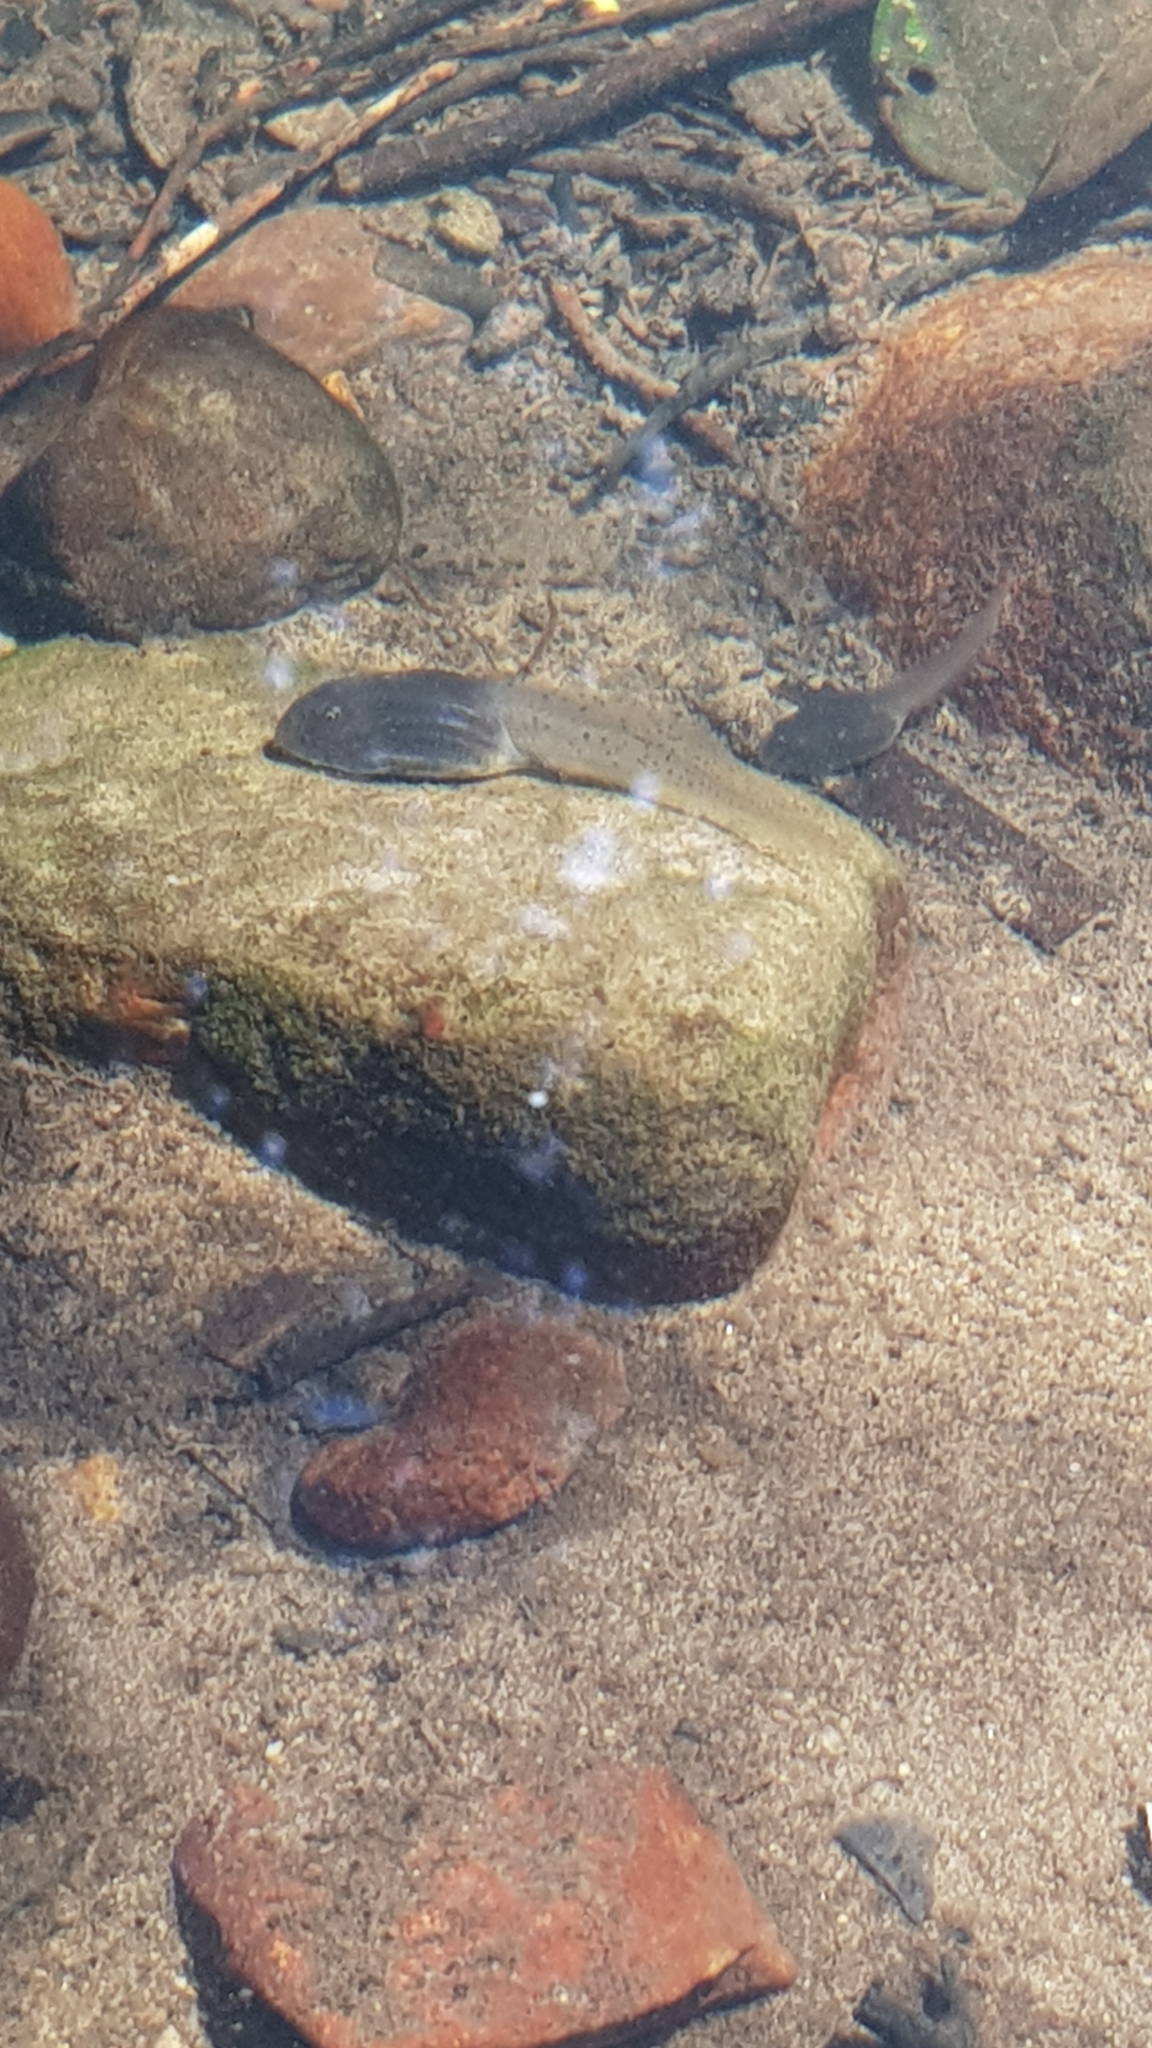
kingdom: Animalia
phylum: Chordata
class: Amphibia
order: Anura
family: Myobatrachidae
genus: Mixophyes
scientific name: Mixophyes fasciolatus
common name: Great barred river-frog
